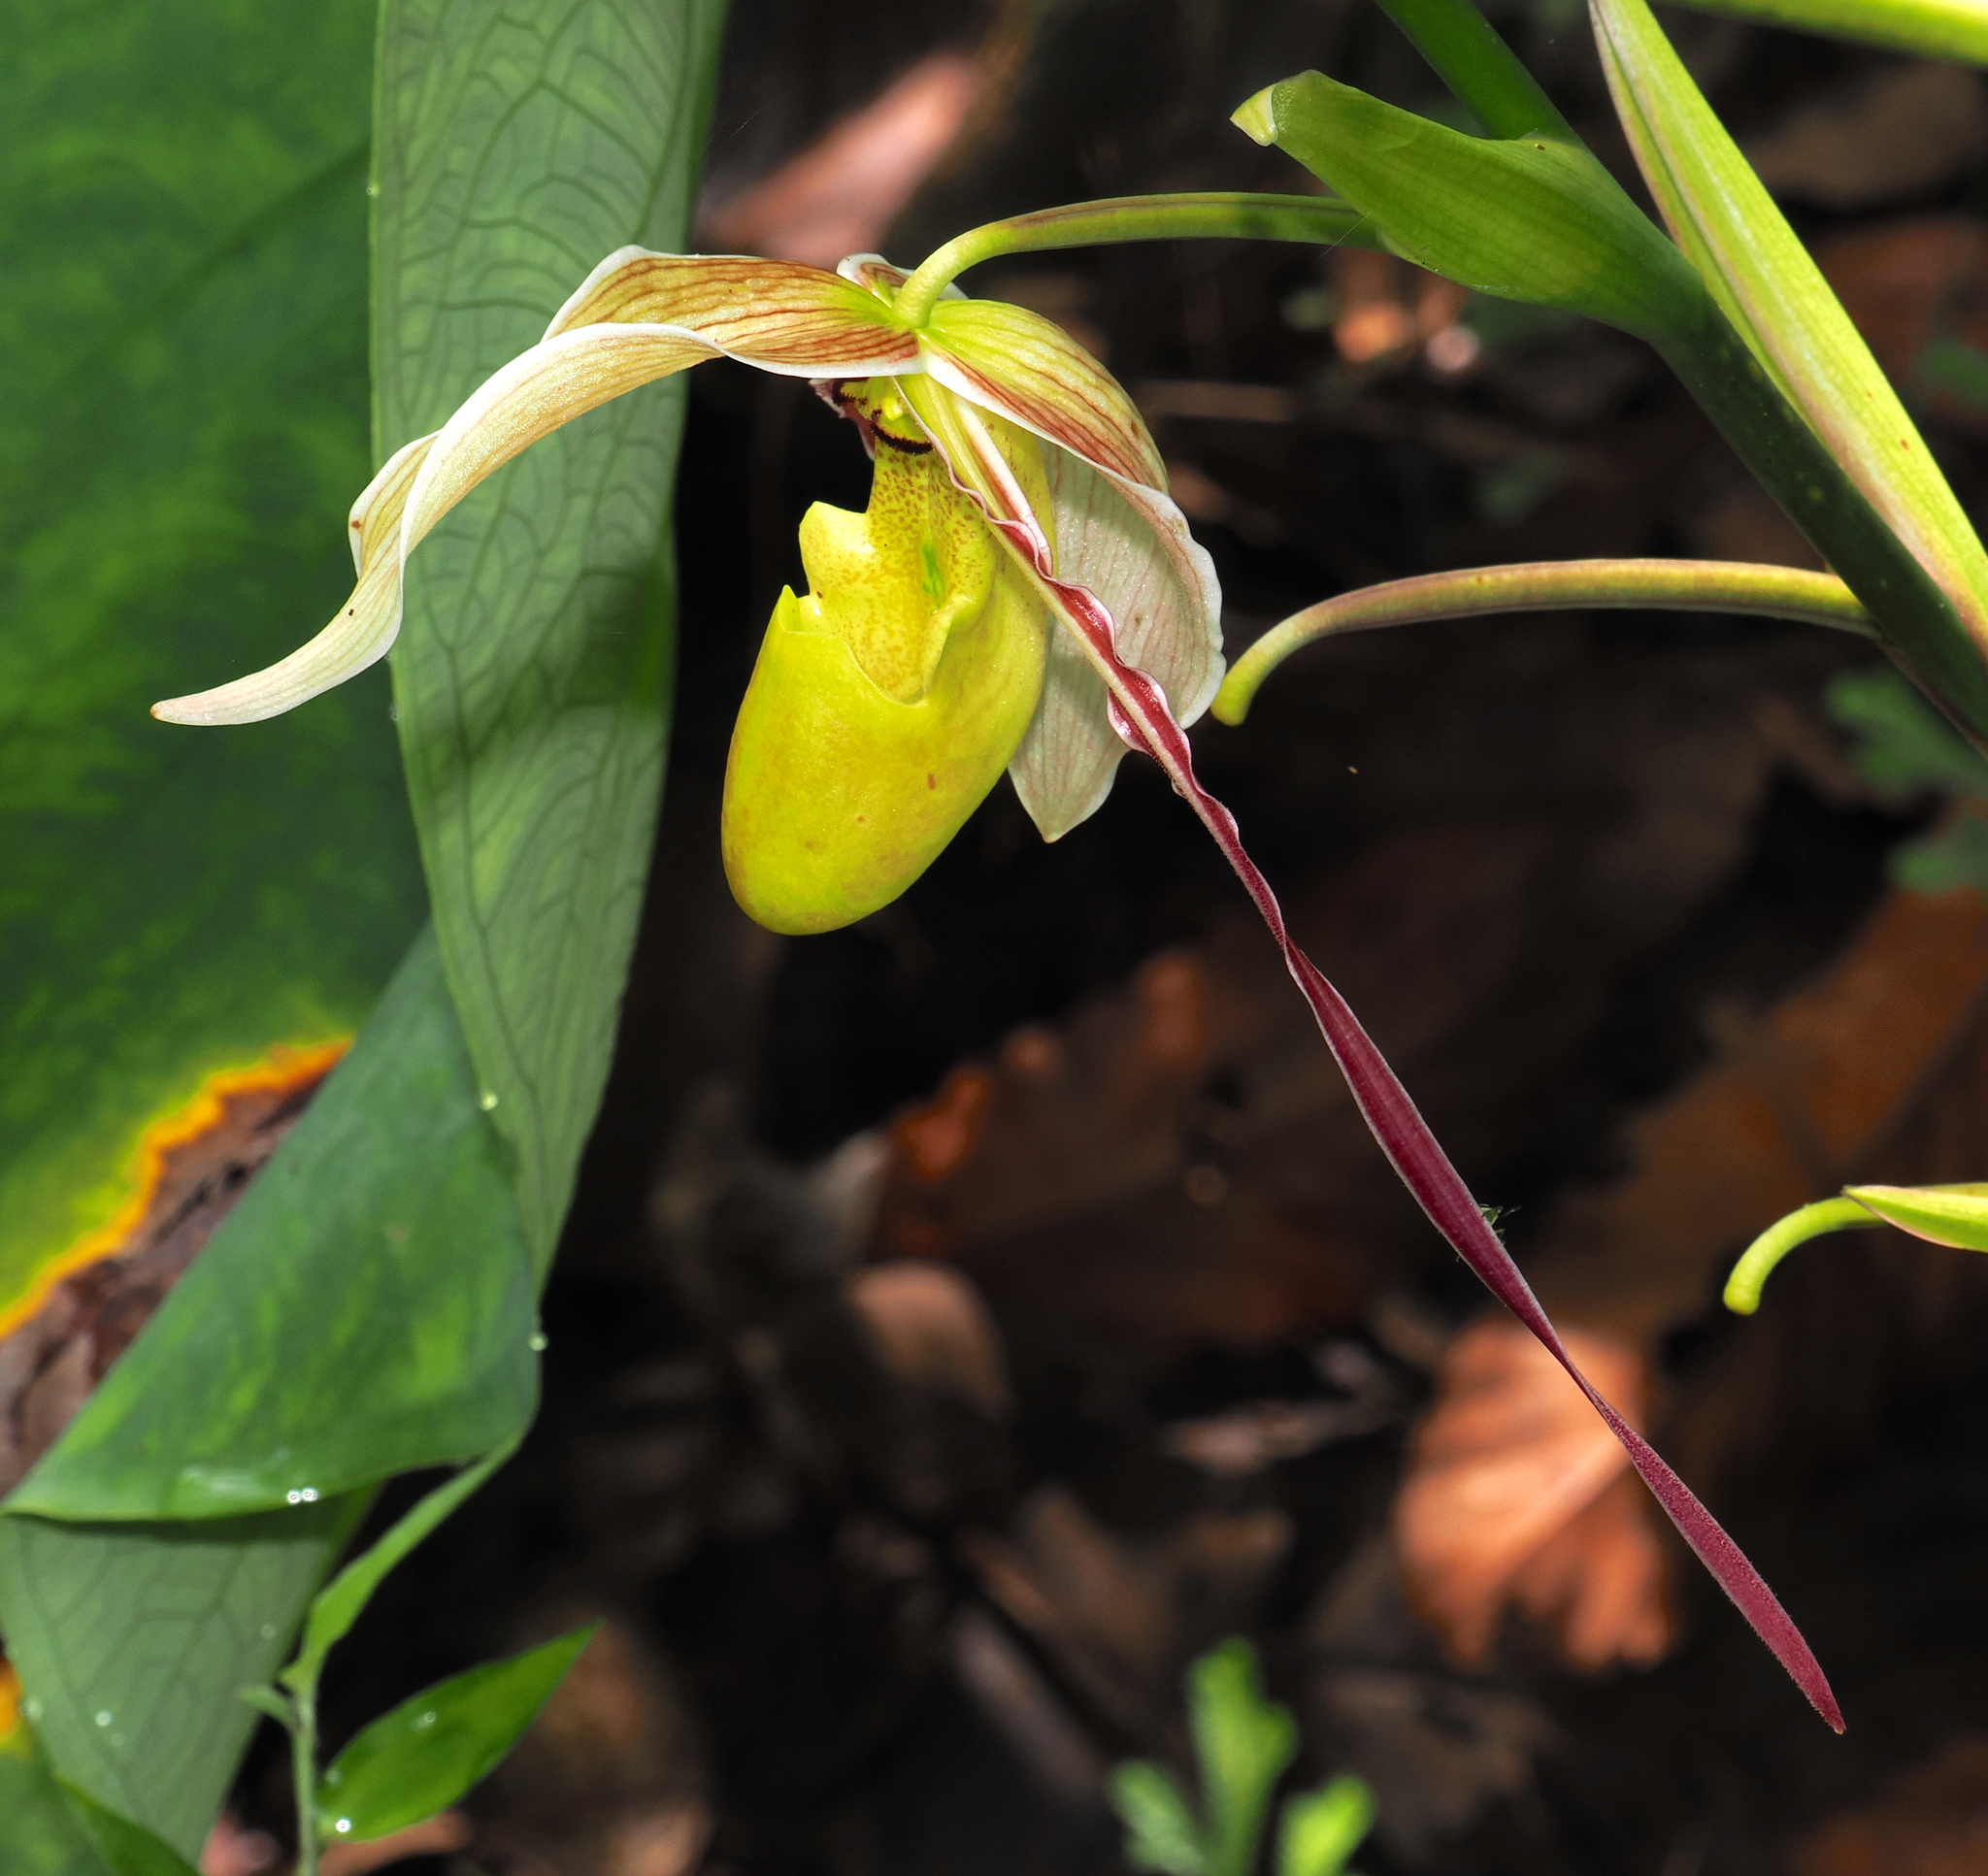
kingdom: Plantae
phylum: Tracheophyta
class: Liliopsida
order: Asparagales
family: Orchidaceae
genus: Phragmipedium
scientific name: Phragmipedium longifolium
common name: Long-leaf phragmipedium
